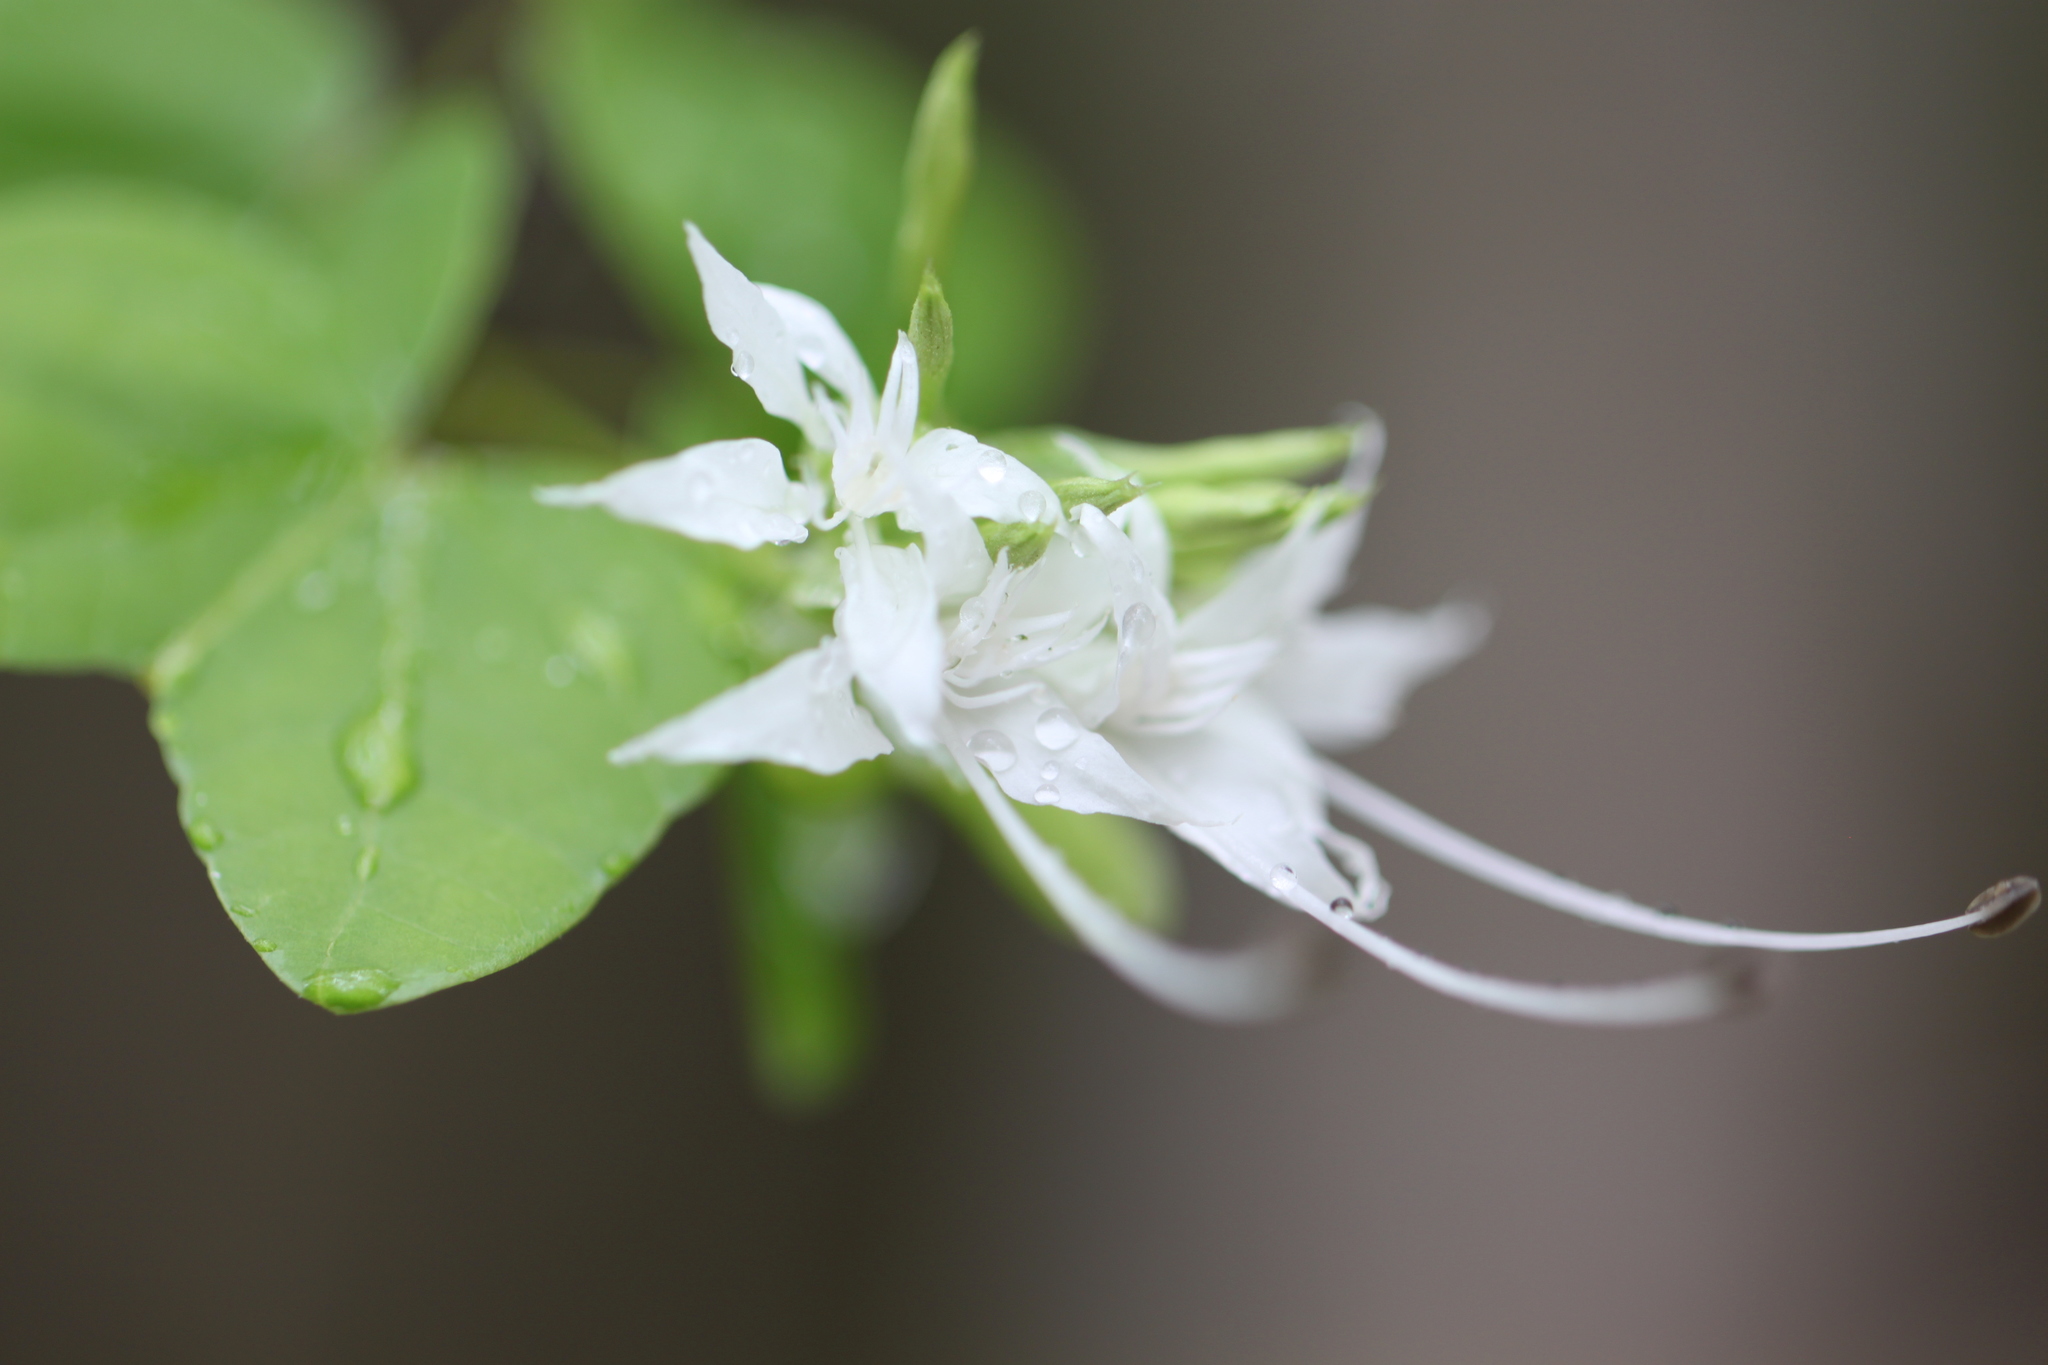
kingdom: Plantae
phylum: Tracheophyta
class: Magnoliopsida
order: Fabales
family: Fabaceae
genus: Bauhinia
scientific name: Bauhinia divaricata
